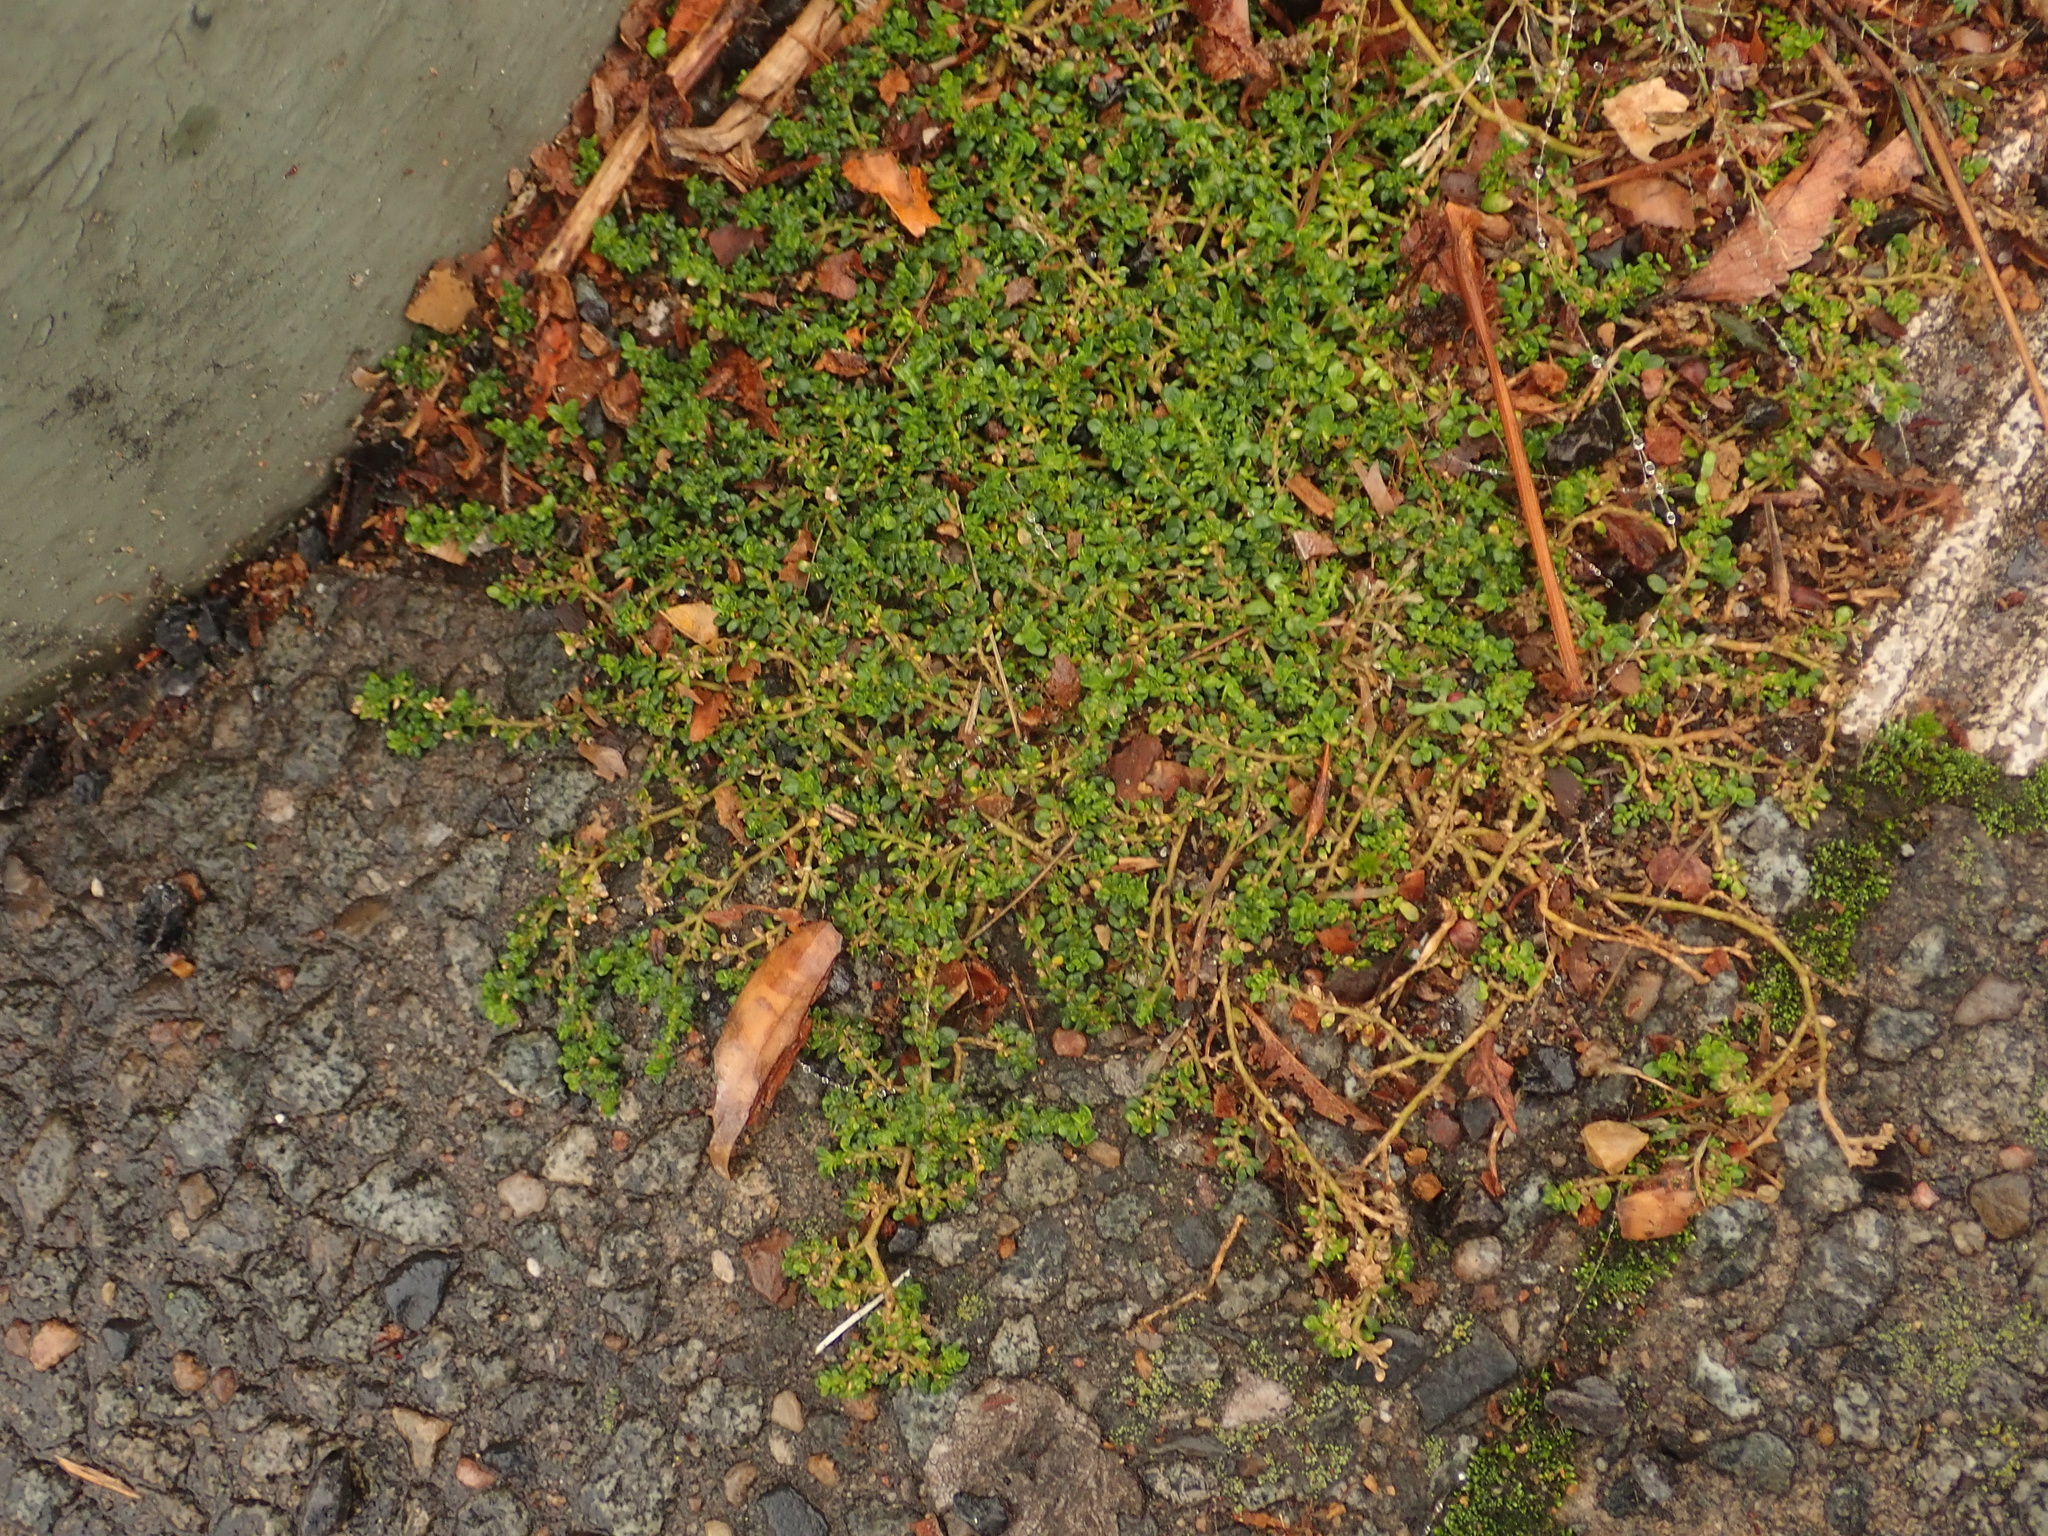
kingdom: Plantae
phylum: Tracheophyta
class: Magnoliopsida
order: Caryophyllales
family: Caryophyllaceae
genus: Herniaria
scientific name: Herniaria glabra
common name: Smooth rupturewort
